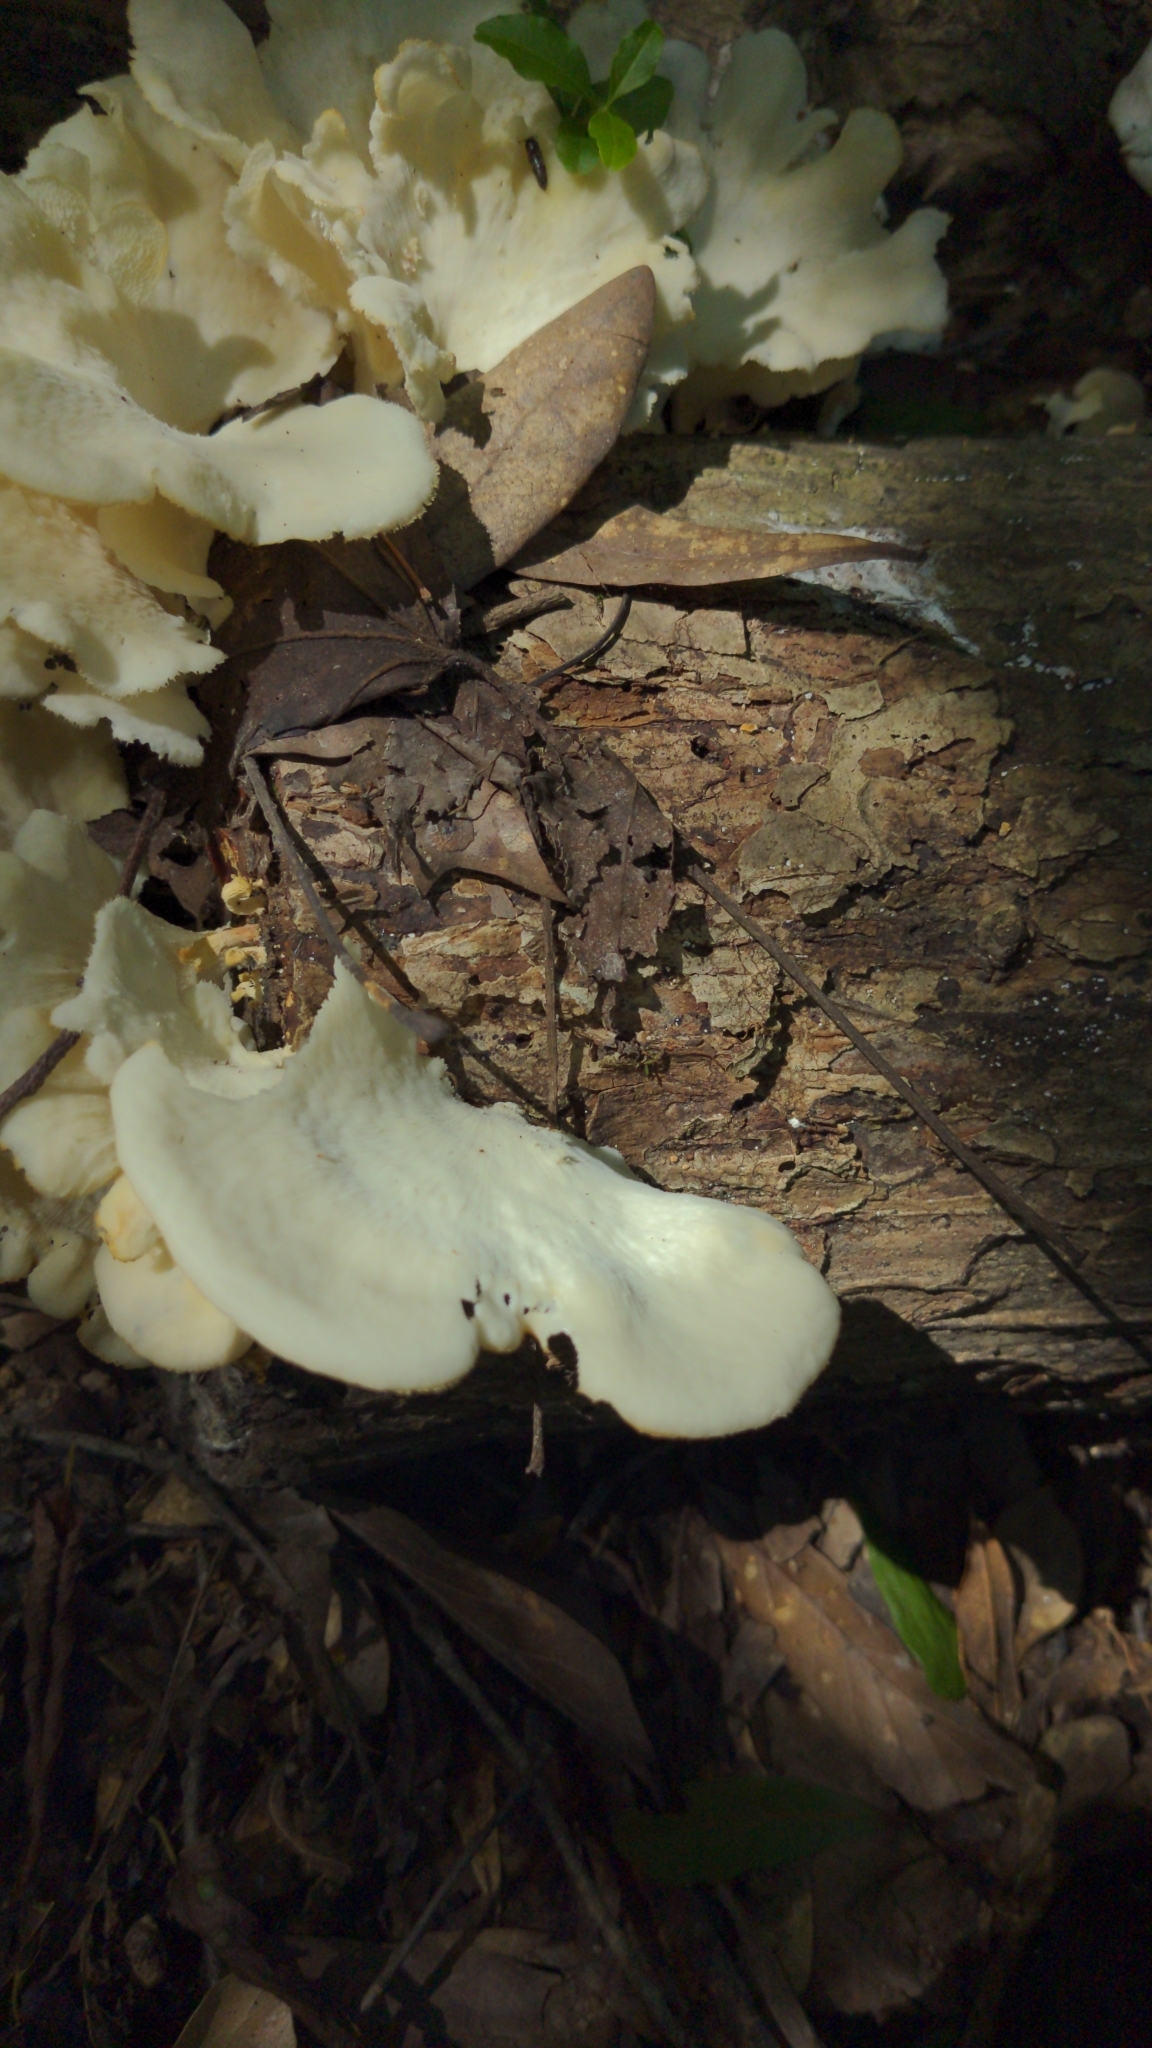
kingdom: Fungi
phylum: Basidiomycota
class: Agaricomycetes
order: Polyporales
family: Polyporaceae
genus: Favolus
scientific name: Favolus tenuiculus
